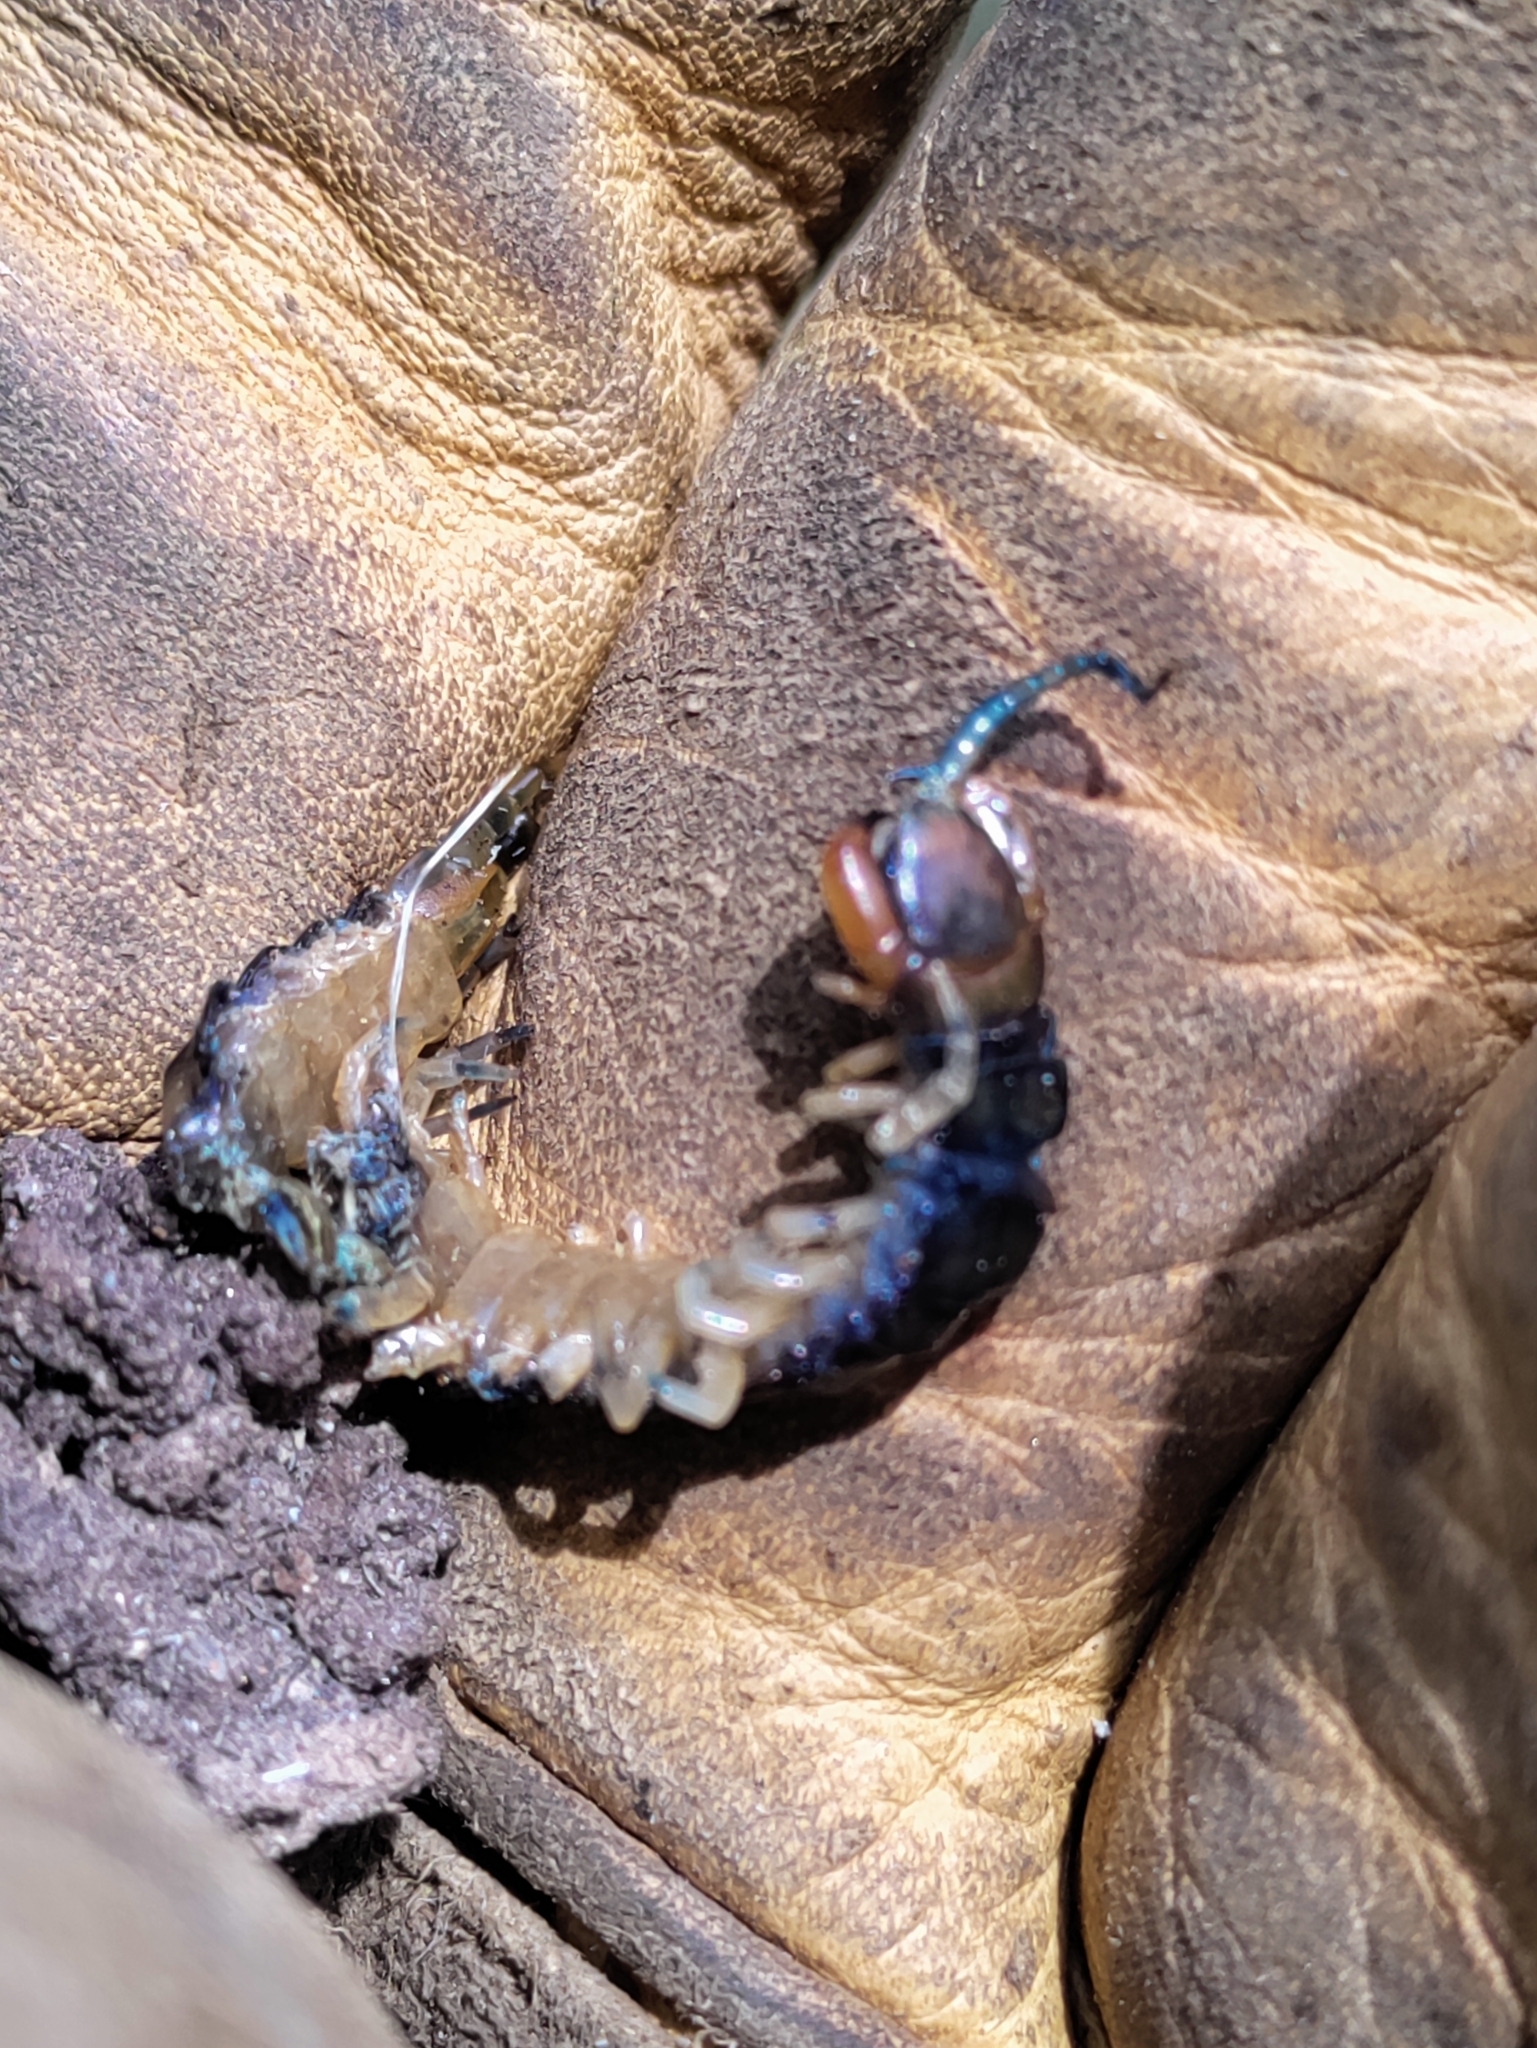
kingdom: Animalia
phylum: Arthropoda
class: Chilopoda
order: Scolopendromorpha
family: Scolopendridae
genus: Hemiscolopendra
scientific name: Hemiscolopendra marginata
